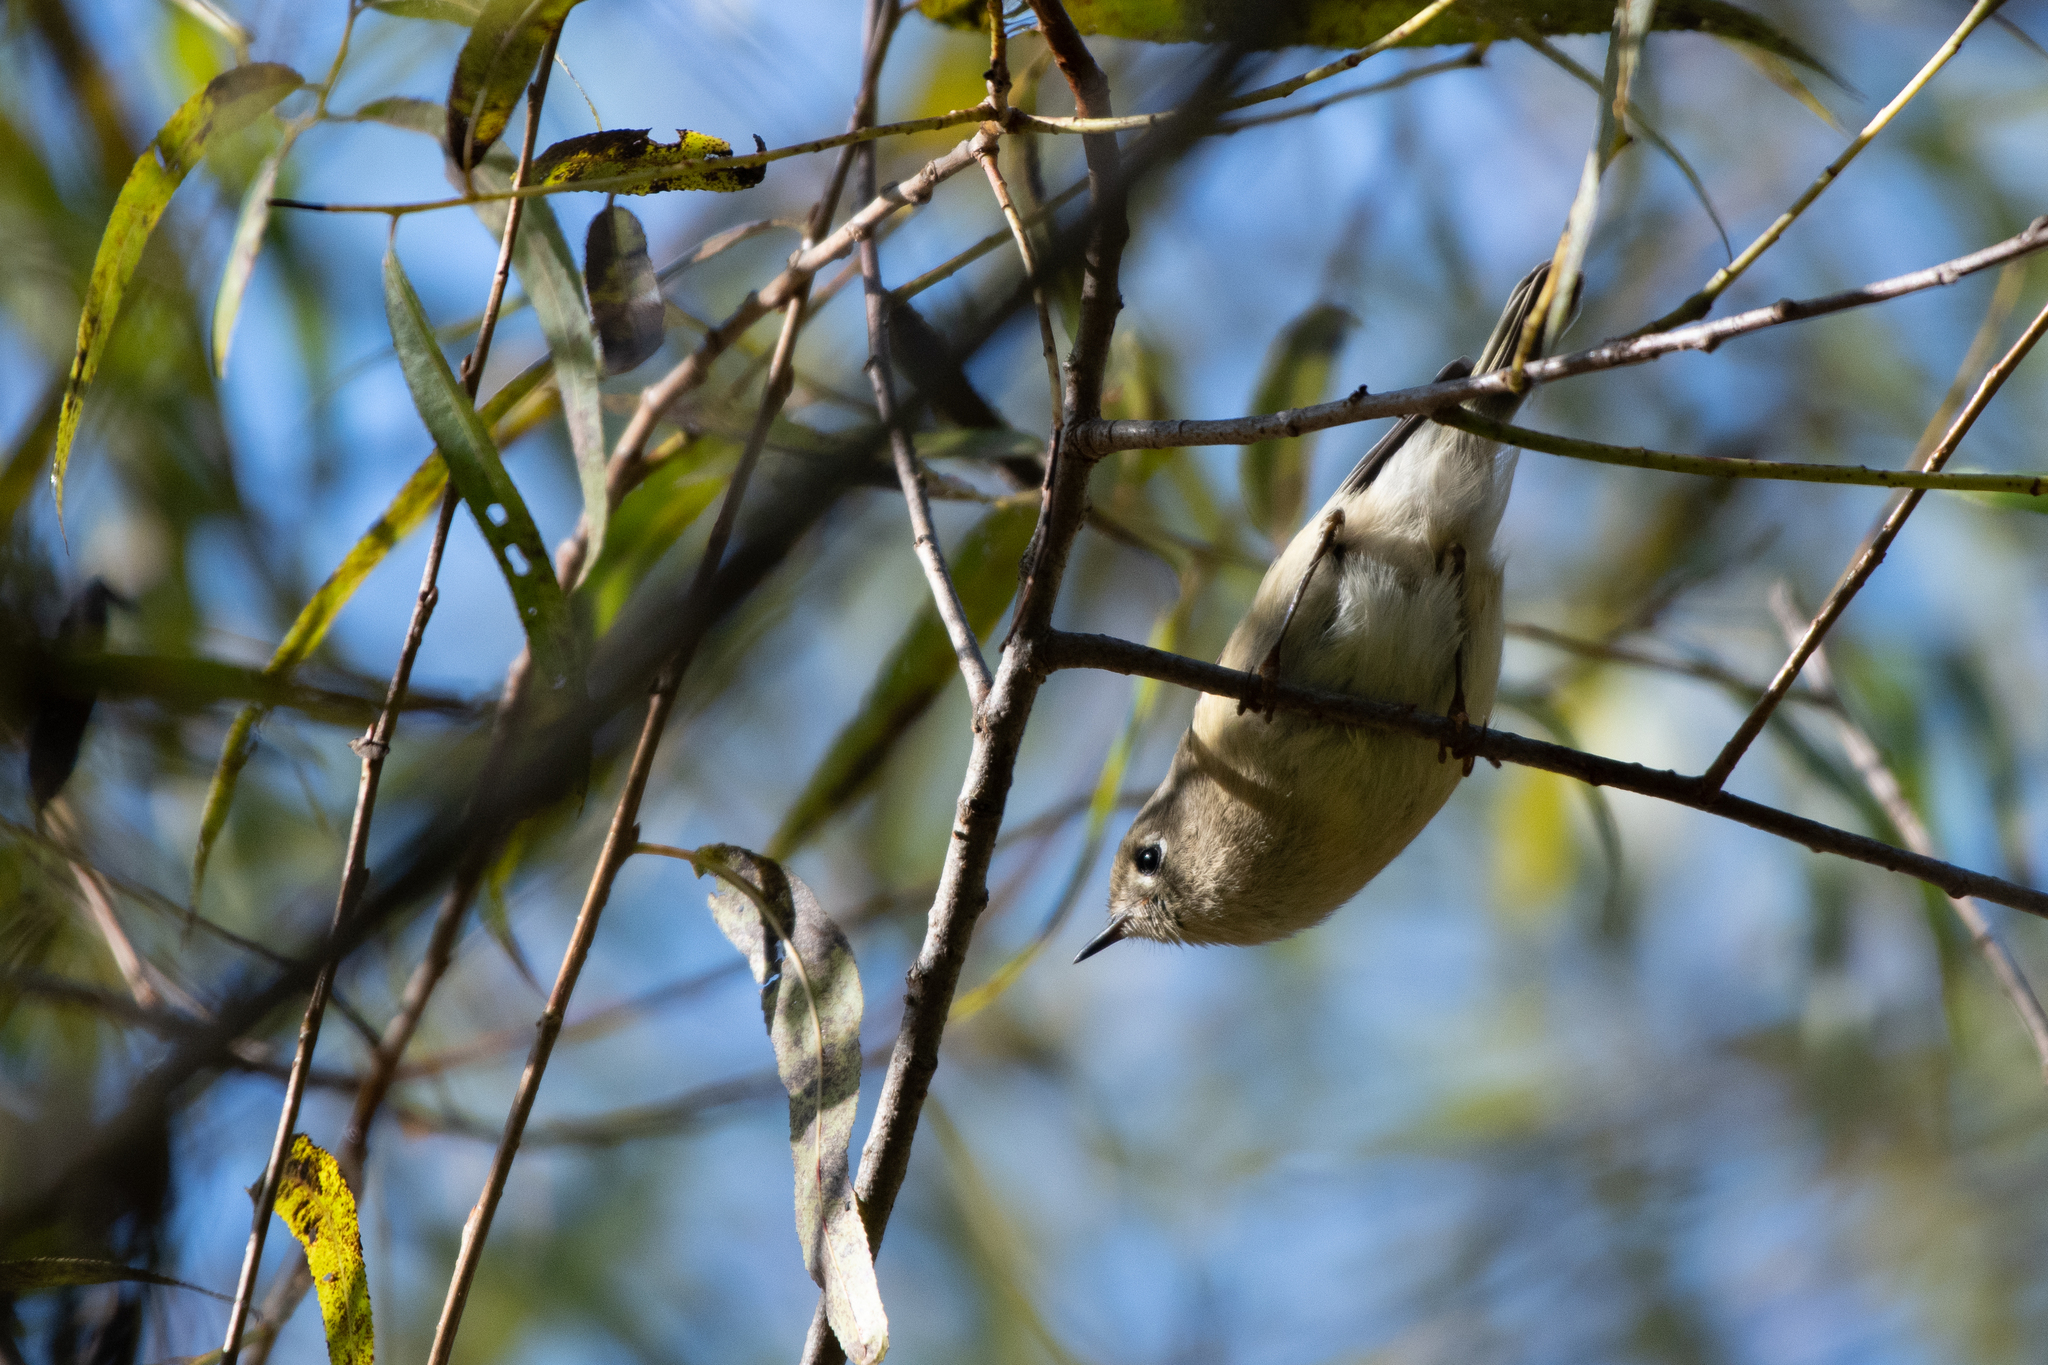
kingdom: Animalia
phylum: Chordata
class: Aves
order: Passeriformes
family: Regulidae
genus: Regulus
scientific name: Regulus calendula
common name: Ruby-crowned kinglet
